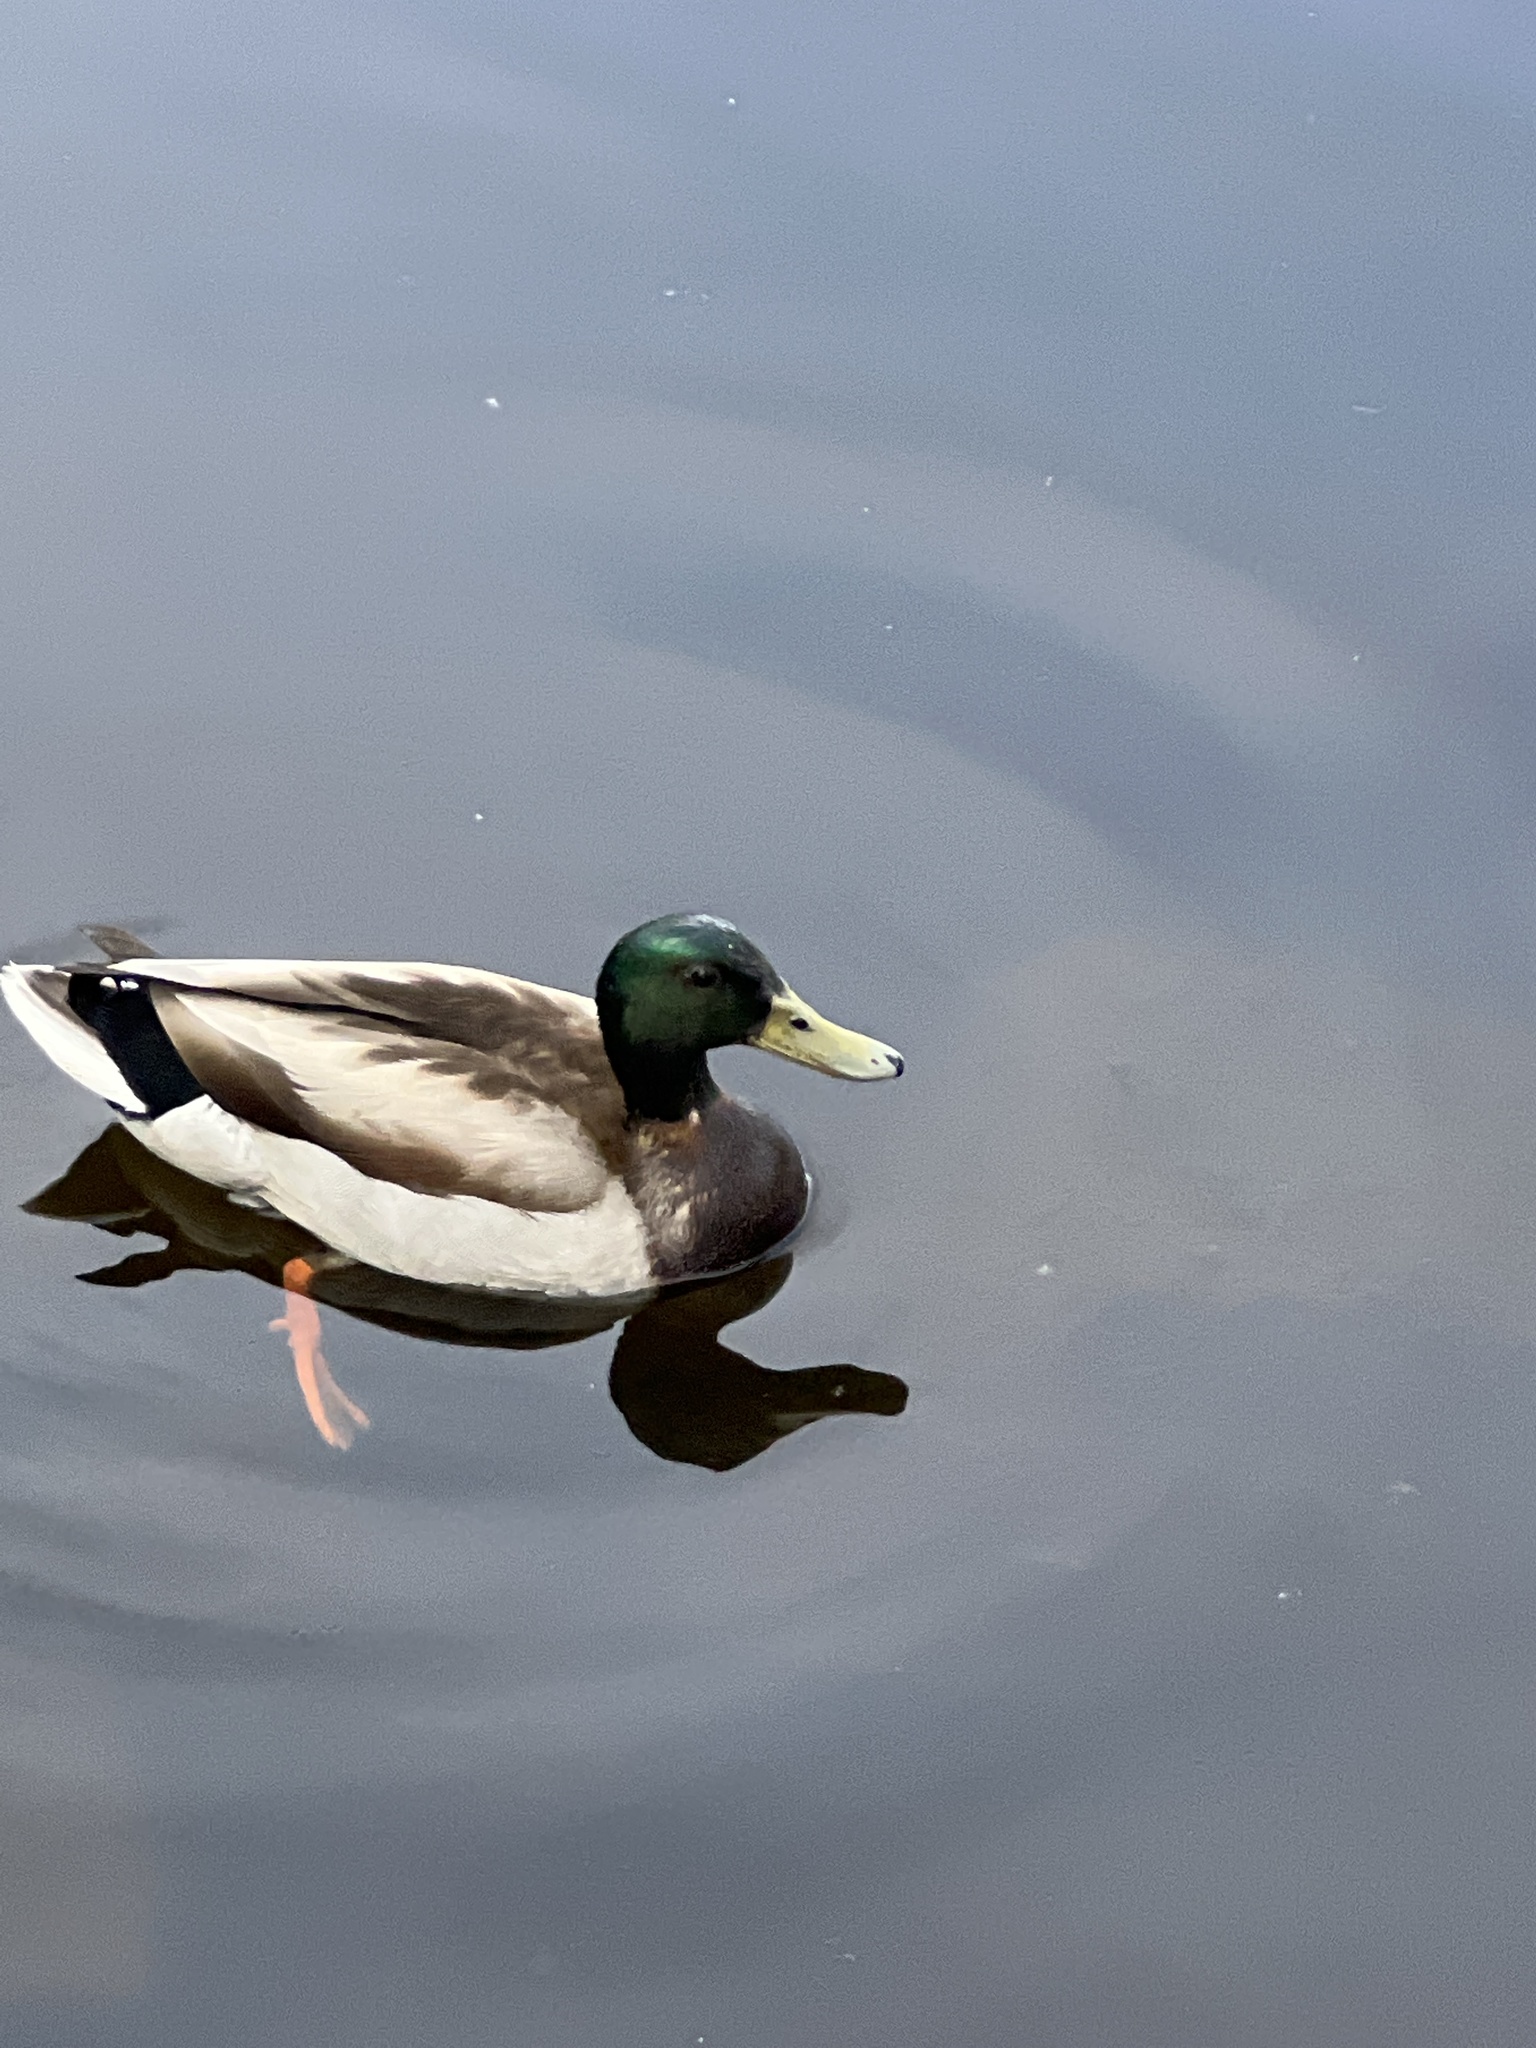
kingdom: Animalia
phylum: Chordata
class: Aves
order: Anseriformes
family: Anatidae
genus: Anas
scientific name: Anas platyrhynchos
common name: Mallard
